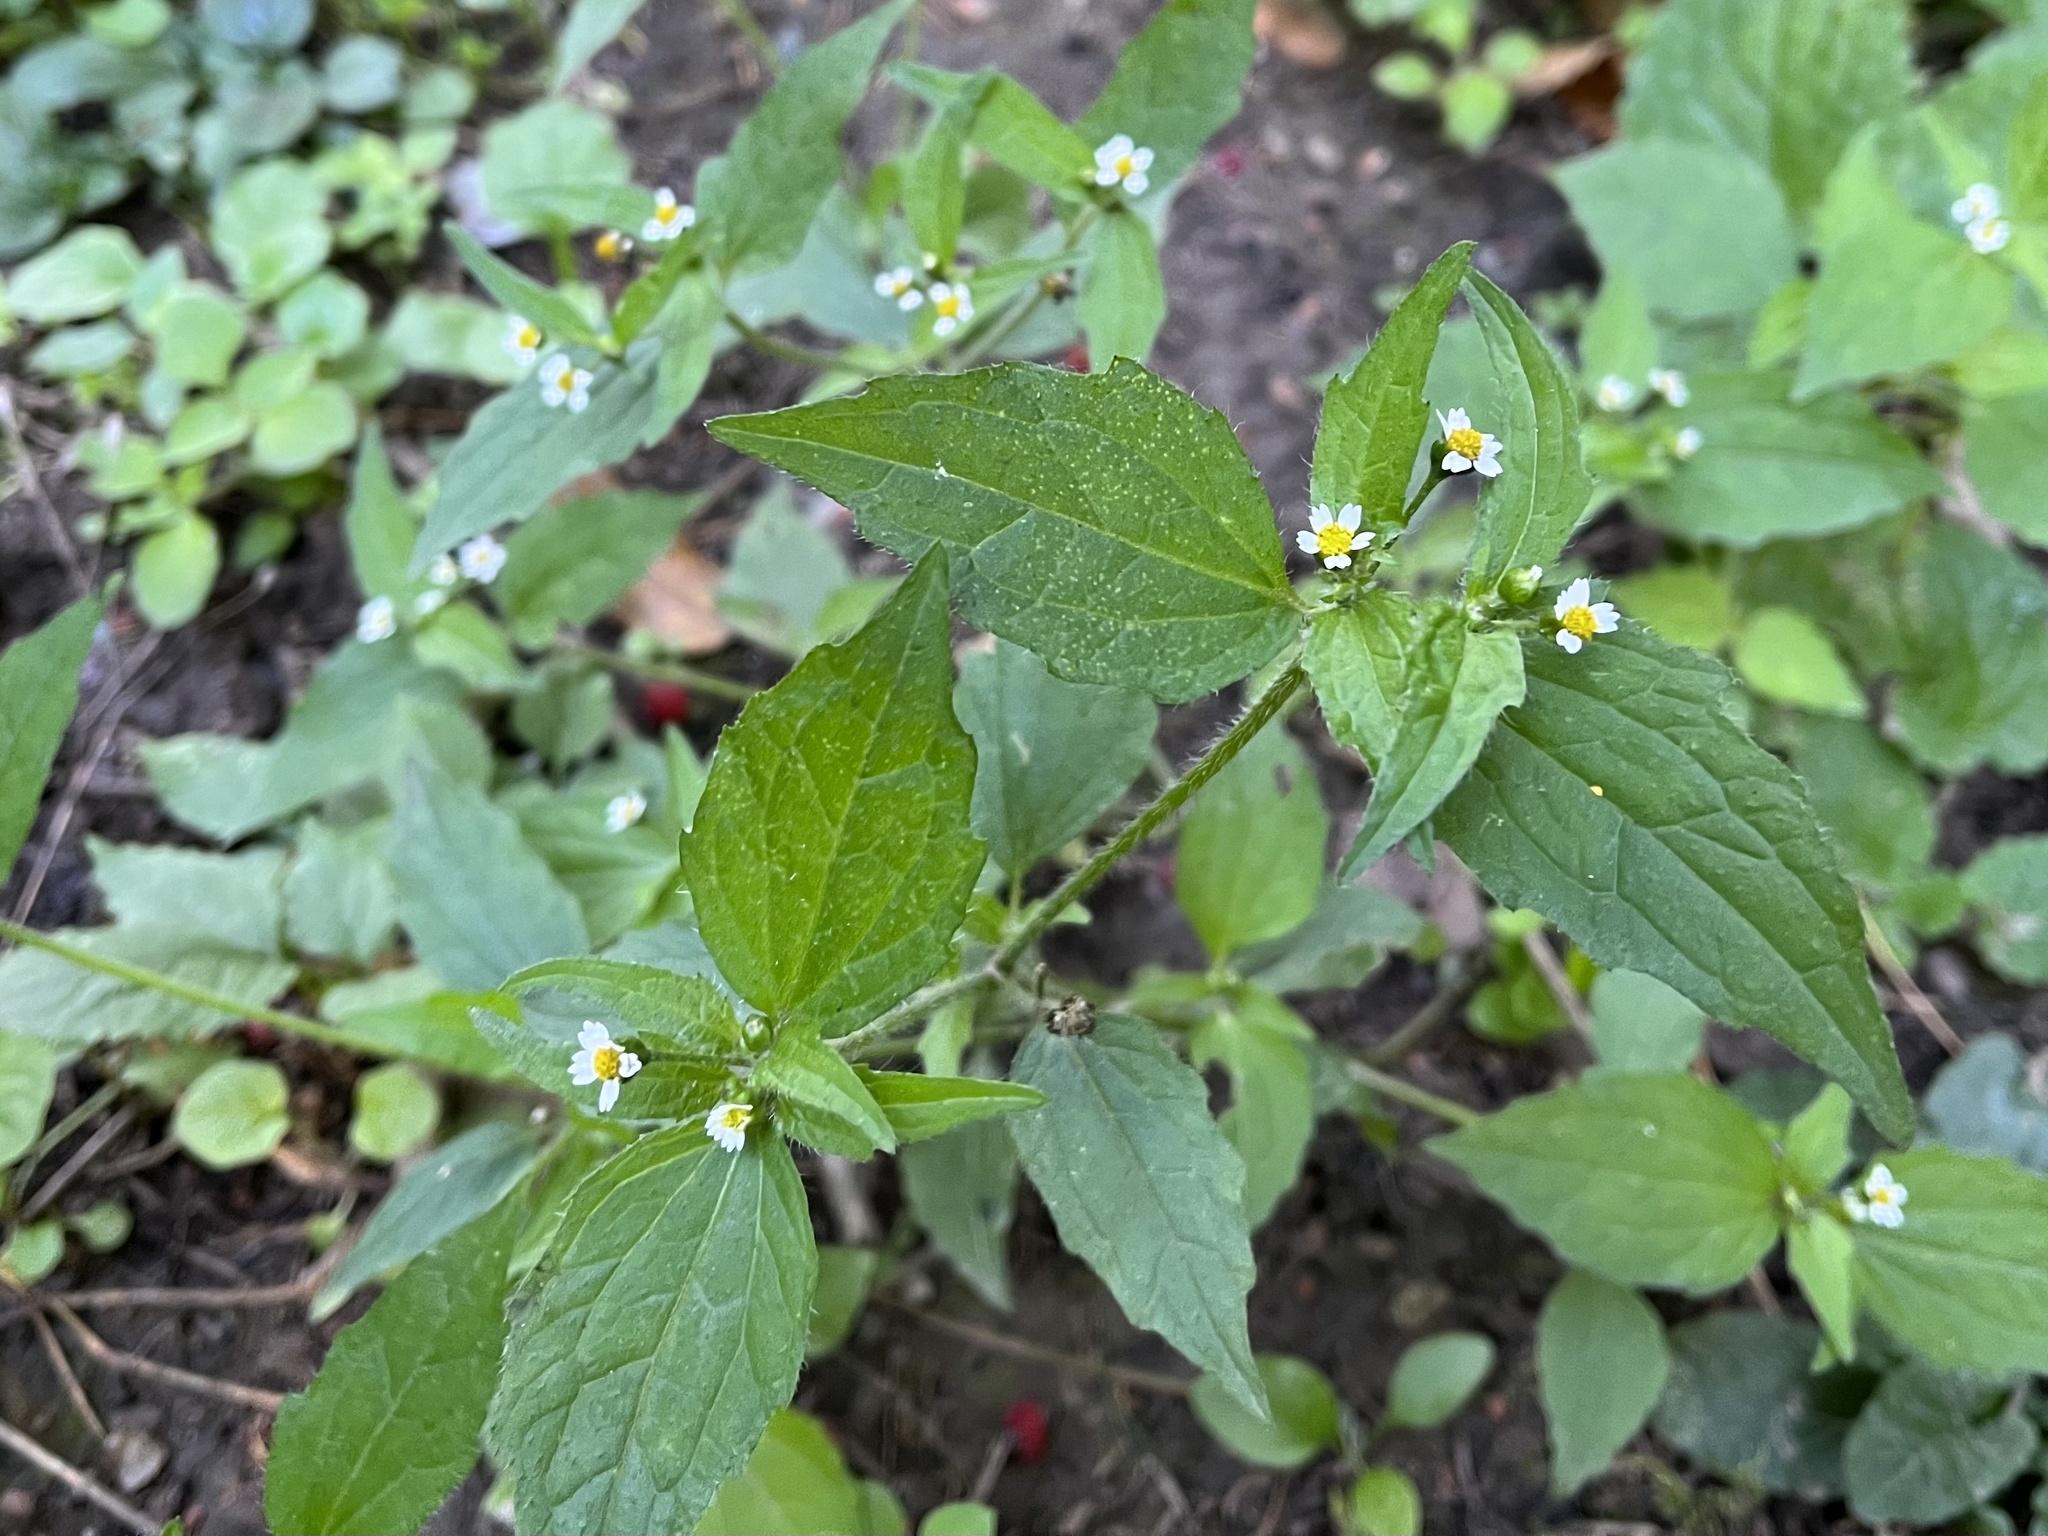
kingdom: Plantae
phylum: Tracheophyta
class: Magnoliopsida
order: Asterales
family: Asteraceae
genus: Galinsoga
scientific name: Galinsoga quadriradiata
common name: Shaggy soldier
